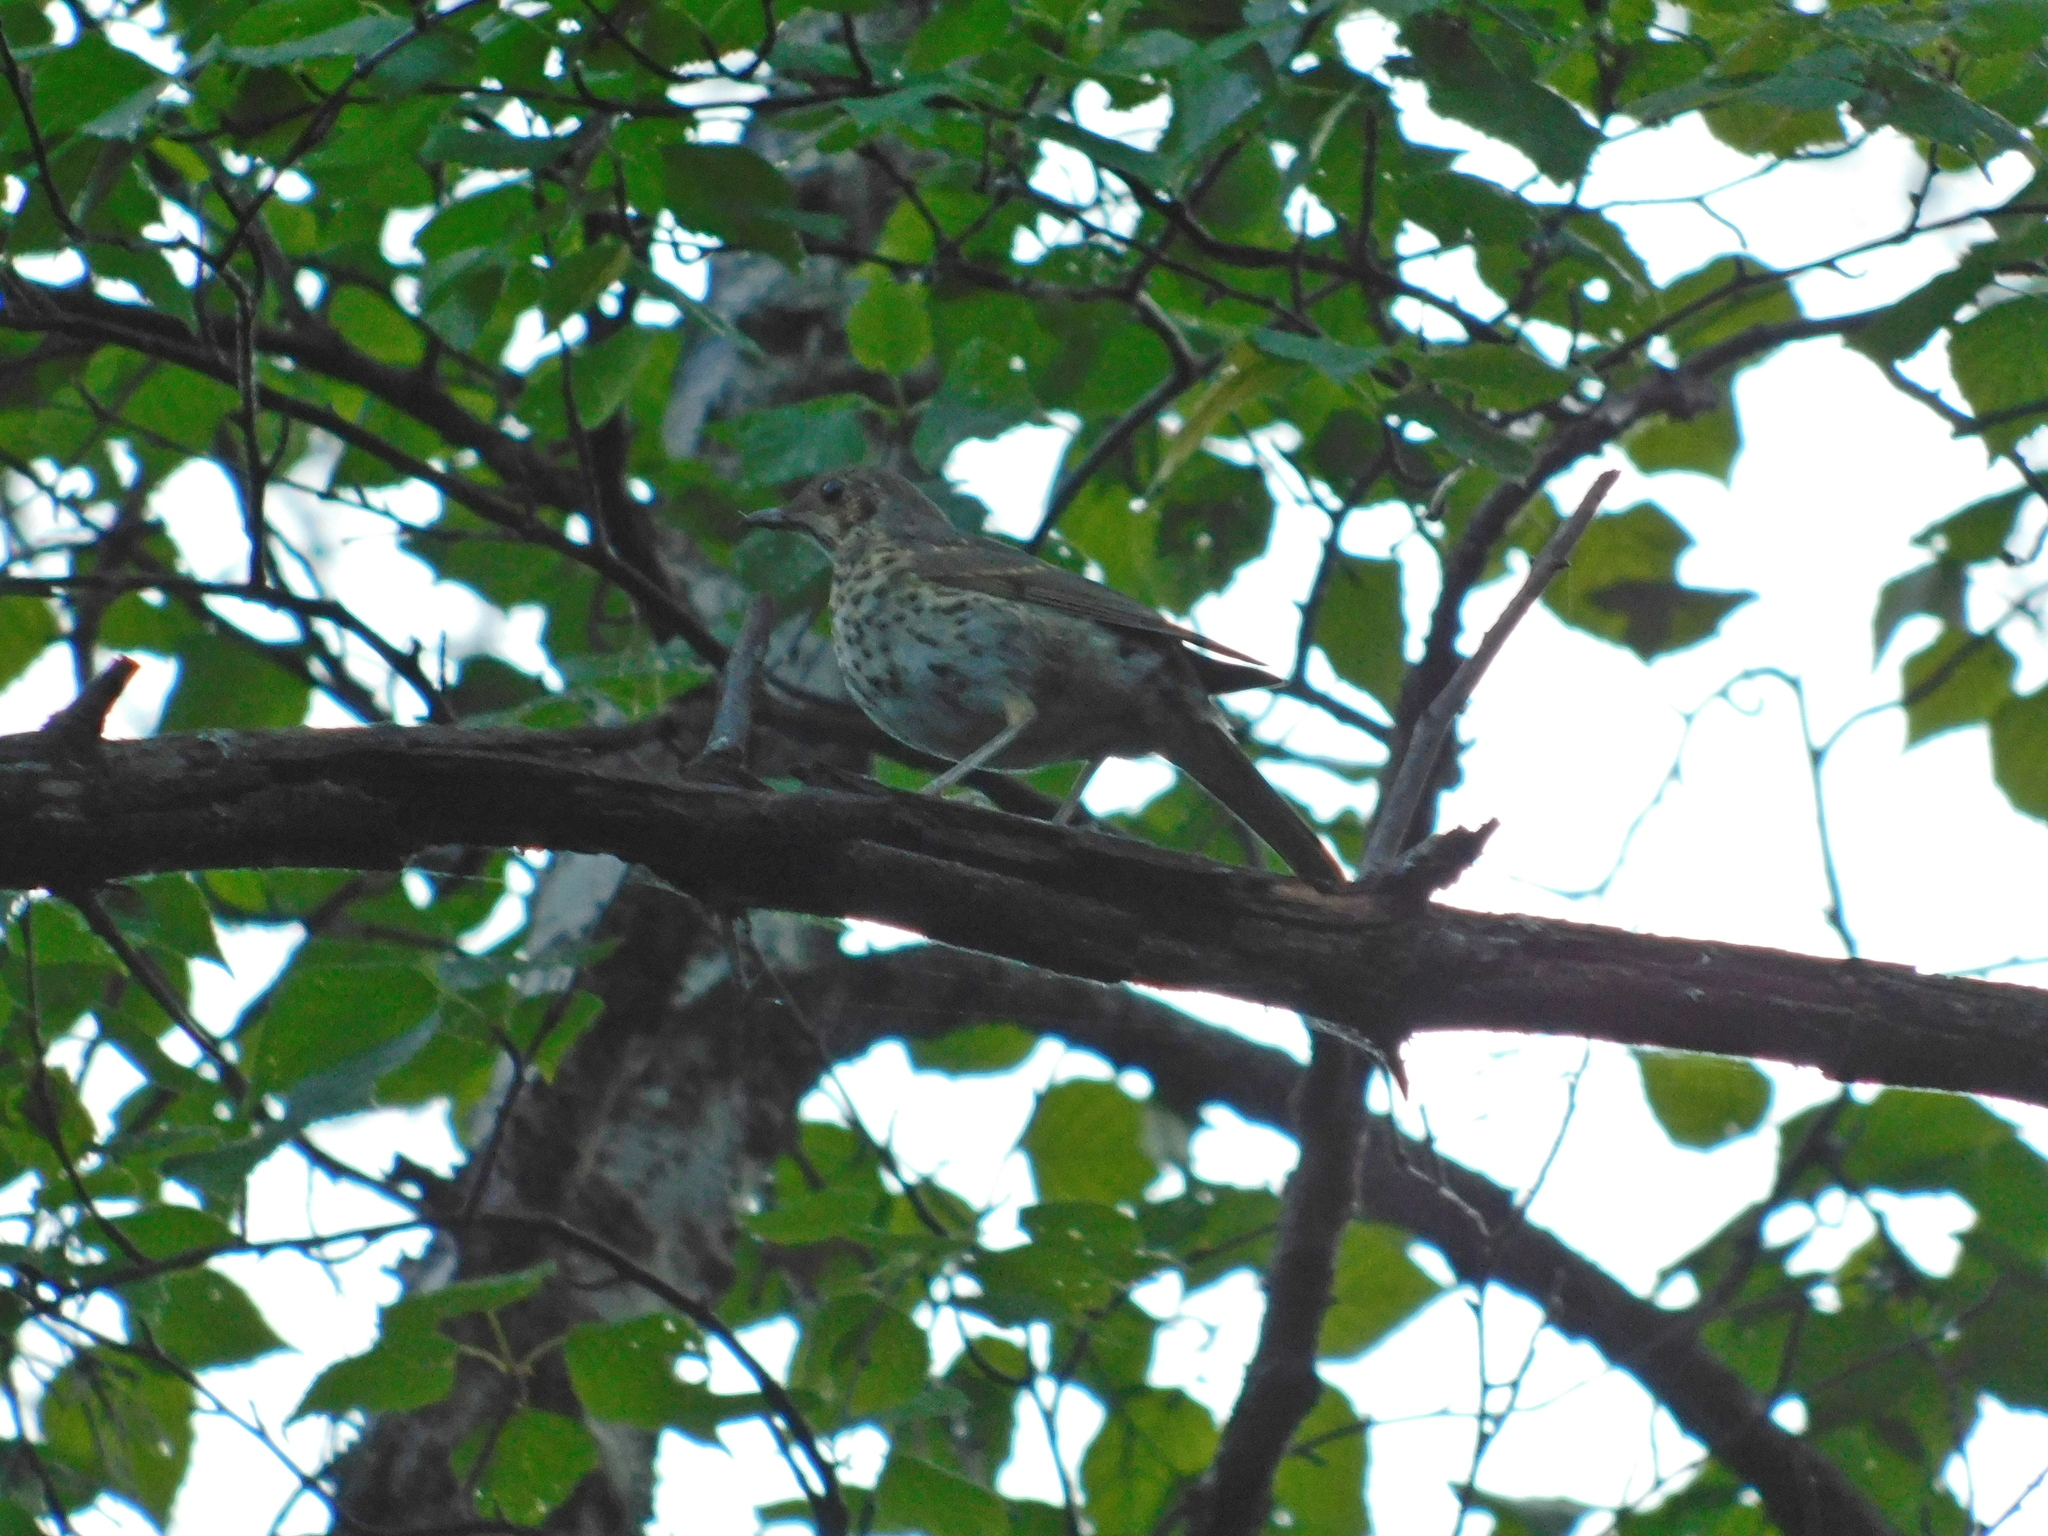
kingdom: Animalia
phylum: Chordata
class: Aves
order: Passeriformes
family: Turdidae
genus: Turdus
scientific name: Turdus philomelos
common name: Song thrush
